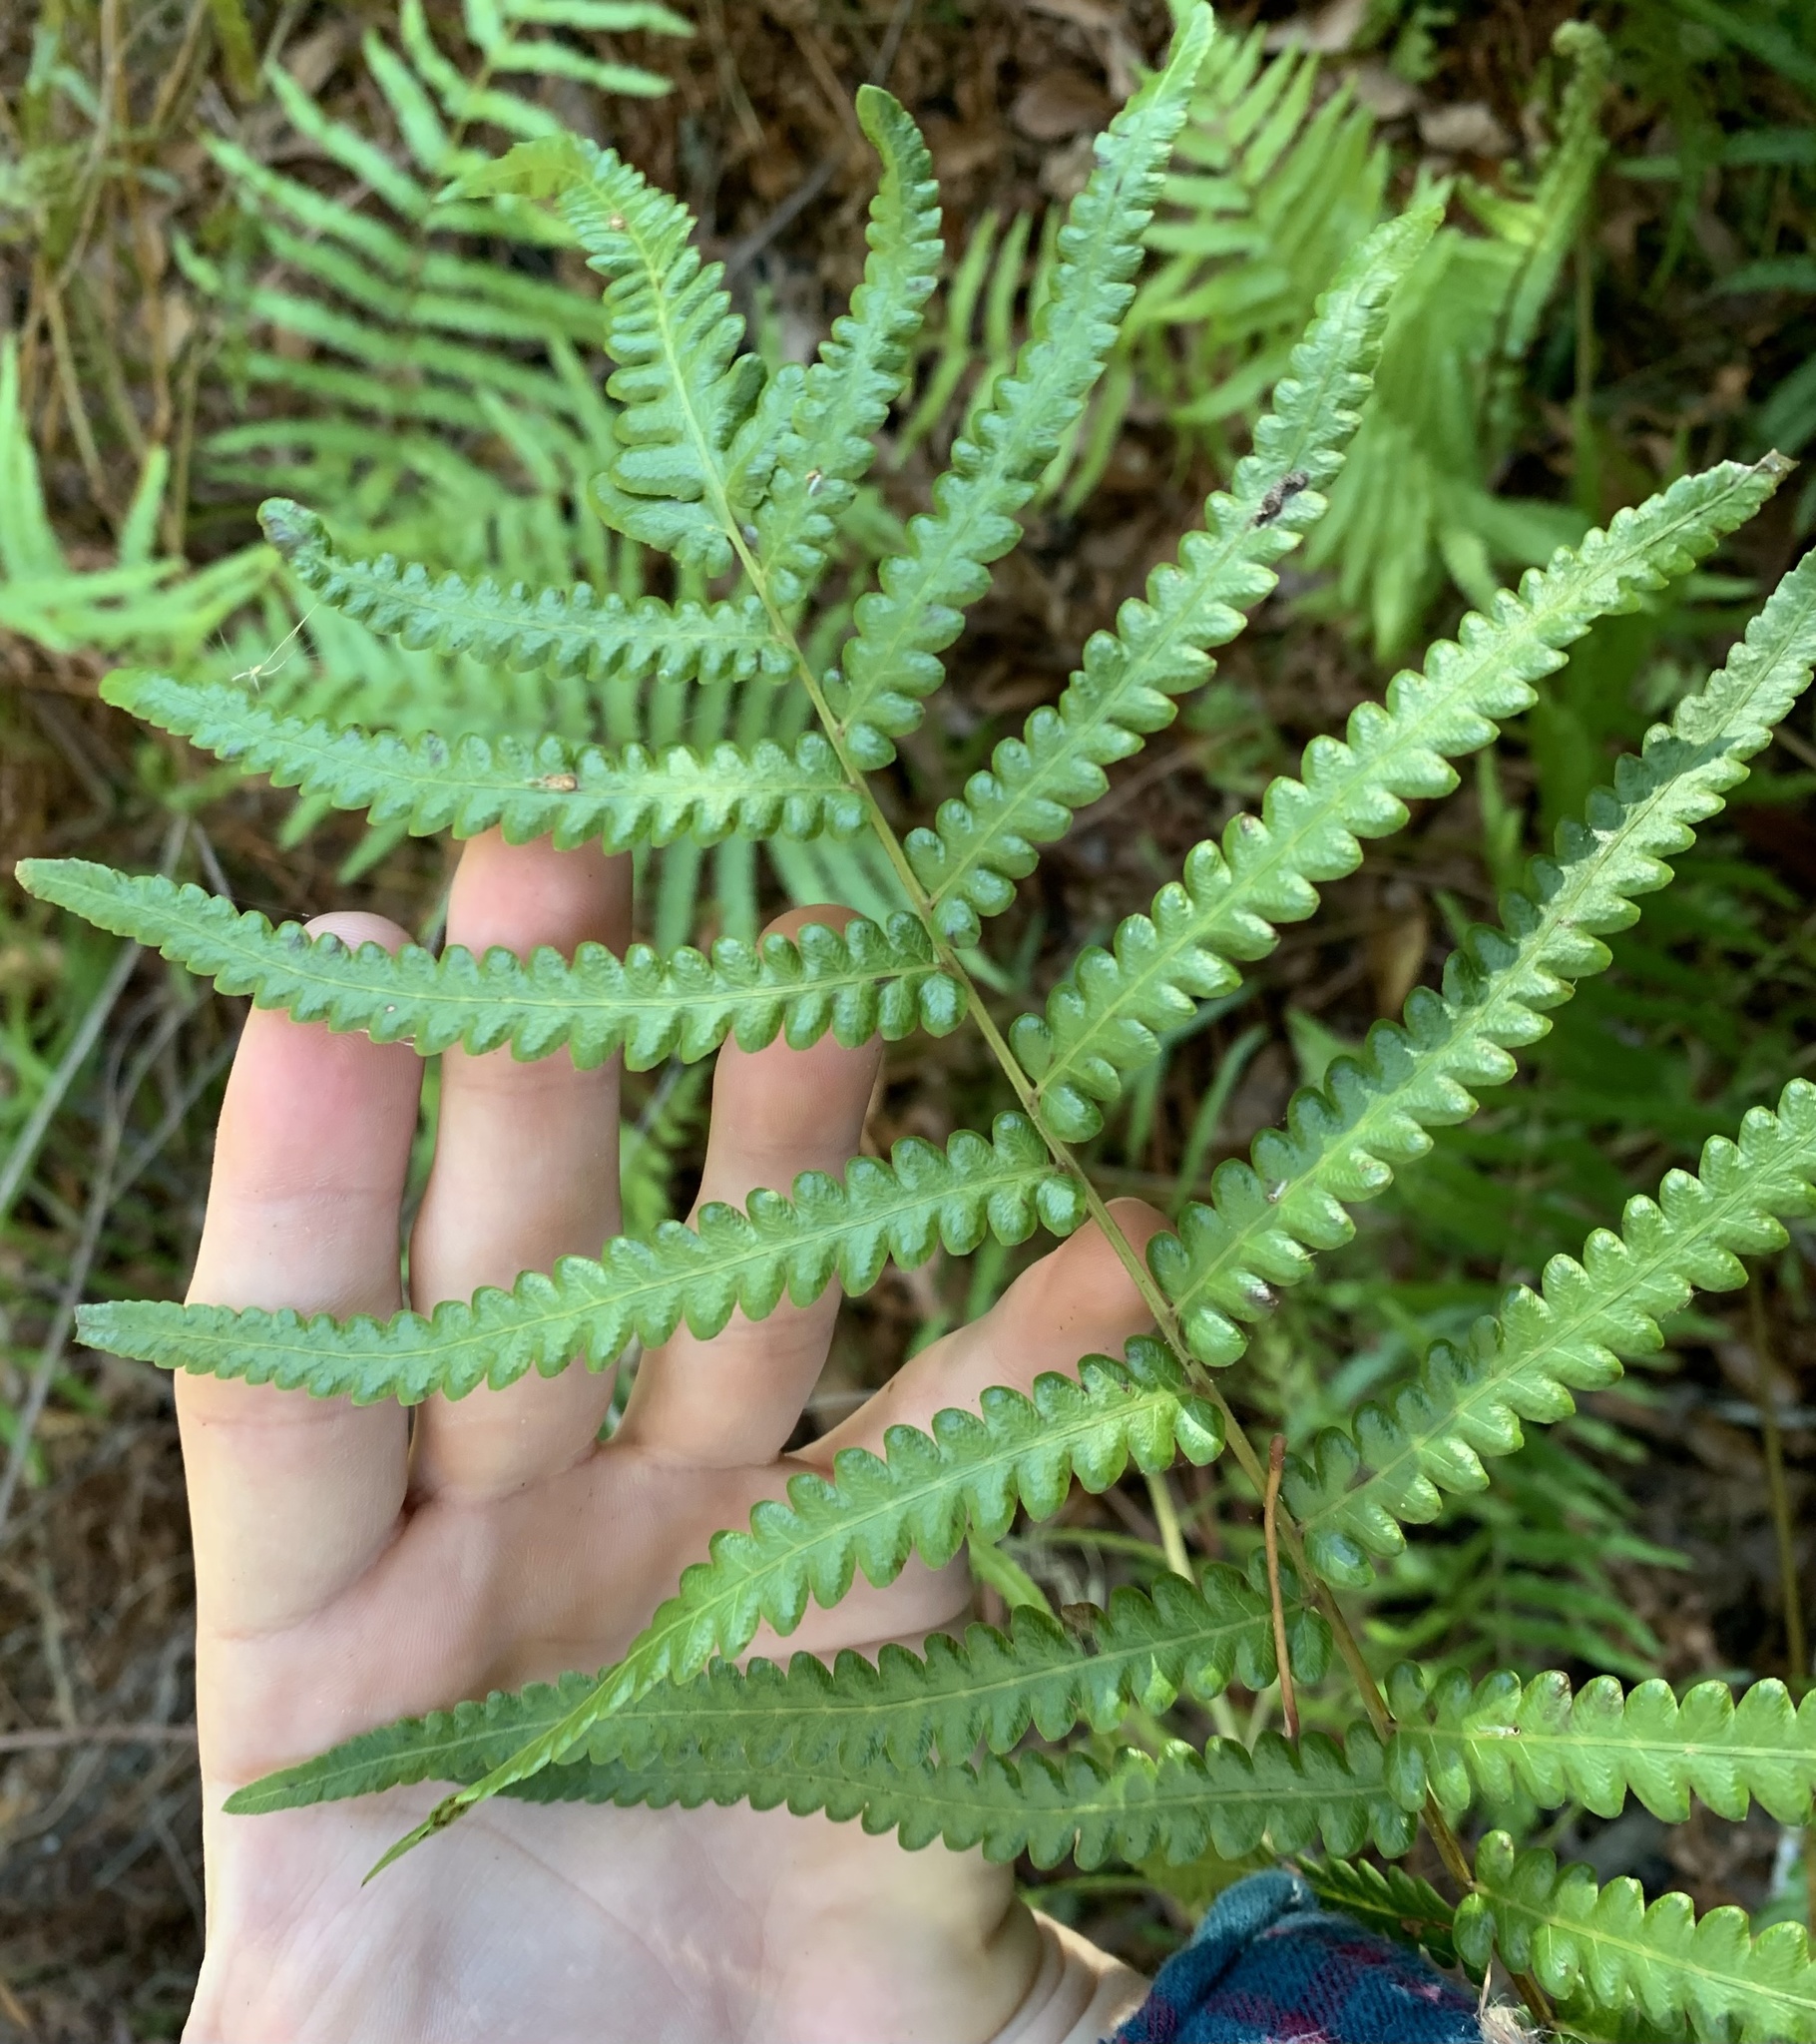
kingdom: Plantae
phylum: Tracheophyta
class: Polypodiopsida
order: Polypodiales
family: Thelypteridaceae
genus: Cyclosorus
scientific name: Cyclosorus interruptus
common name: Neke fern
